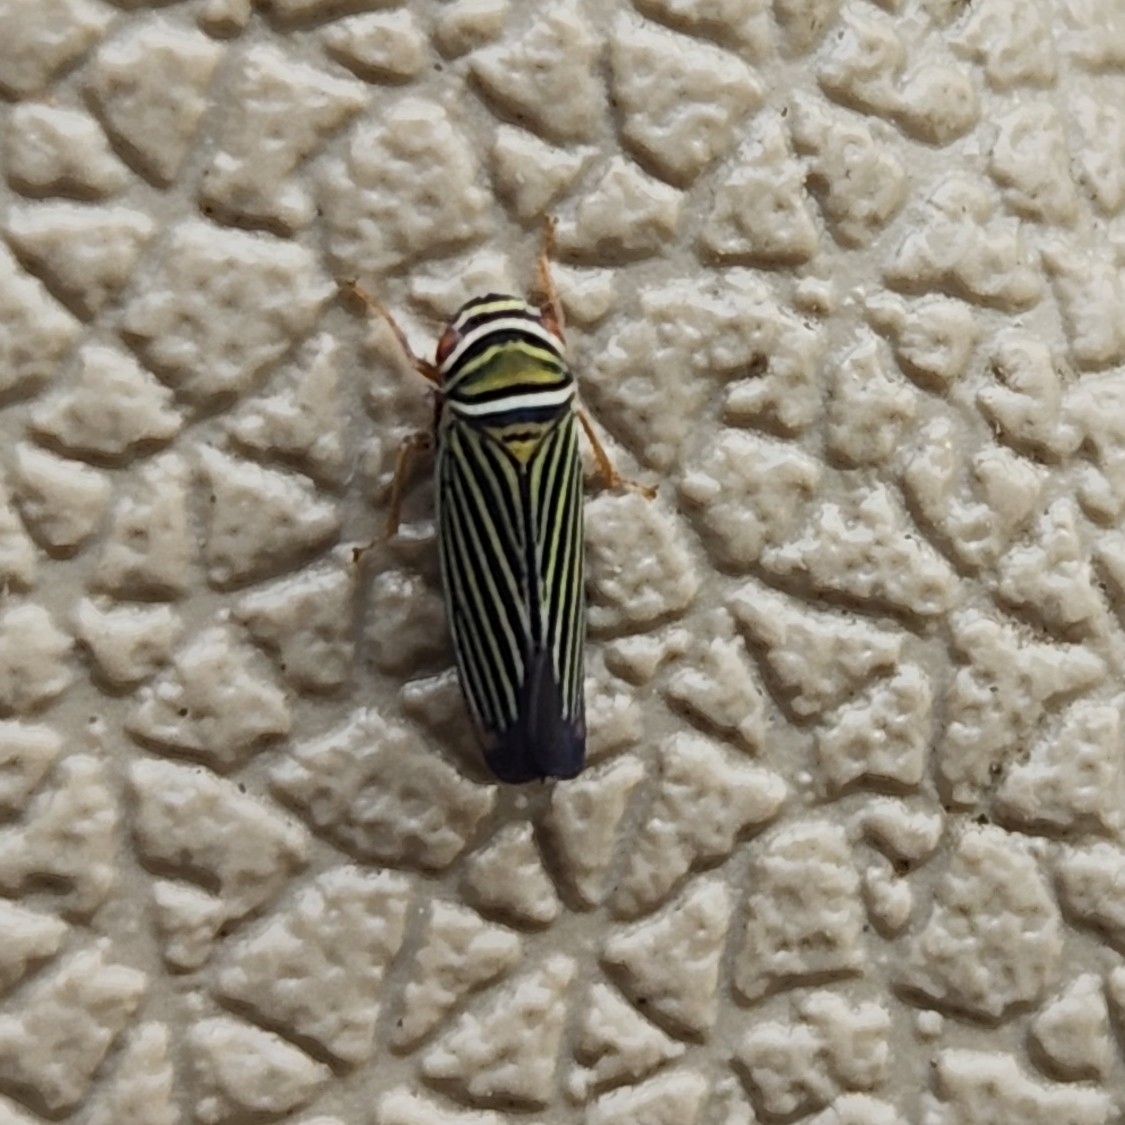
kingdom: Animalia
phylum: Arthropoda
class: Insecta
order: Hemiptera
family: Cicadellidae
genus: Tylozygus
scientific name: Tylozygus bifidus
